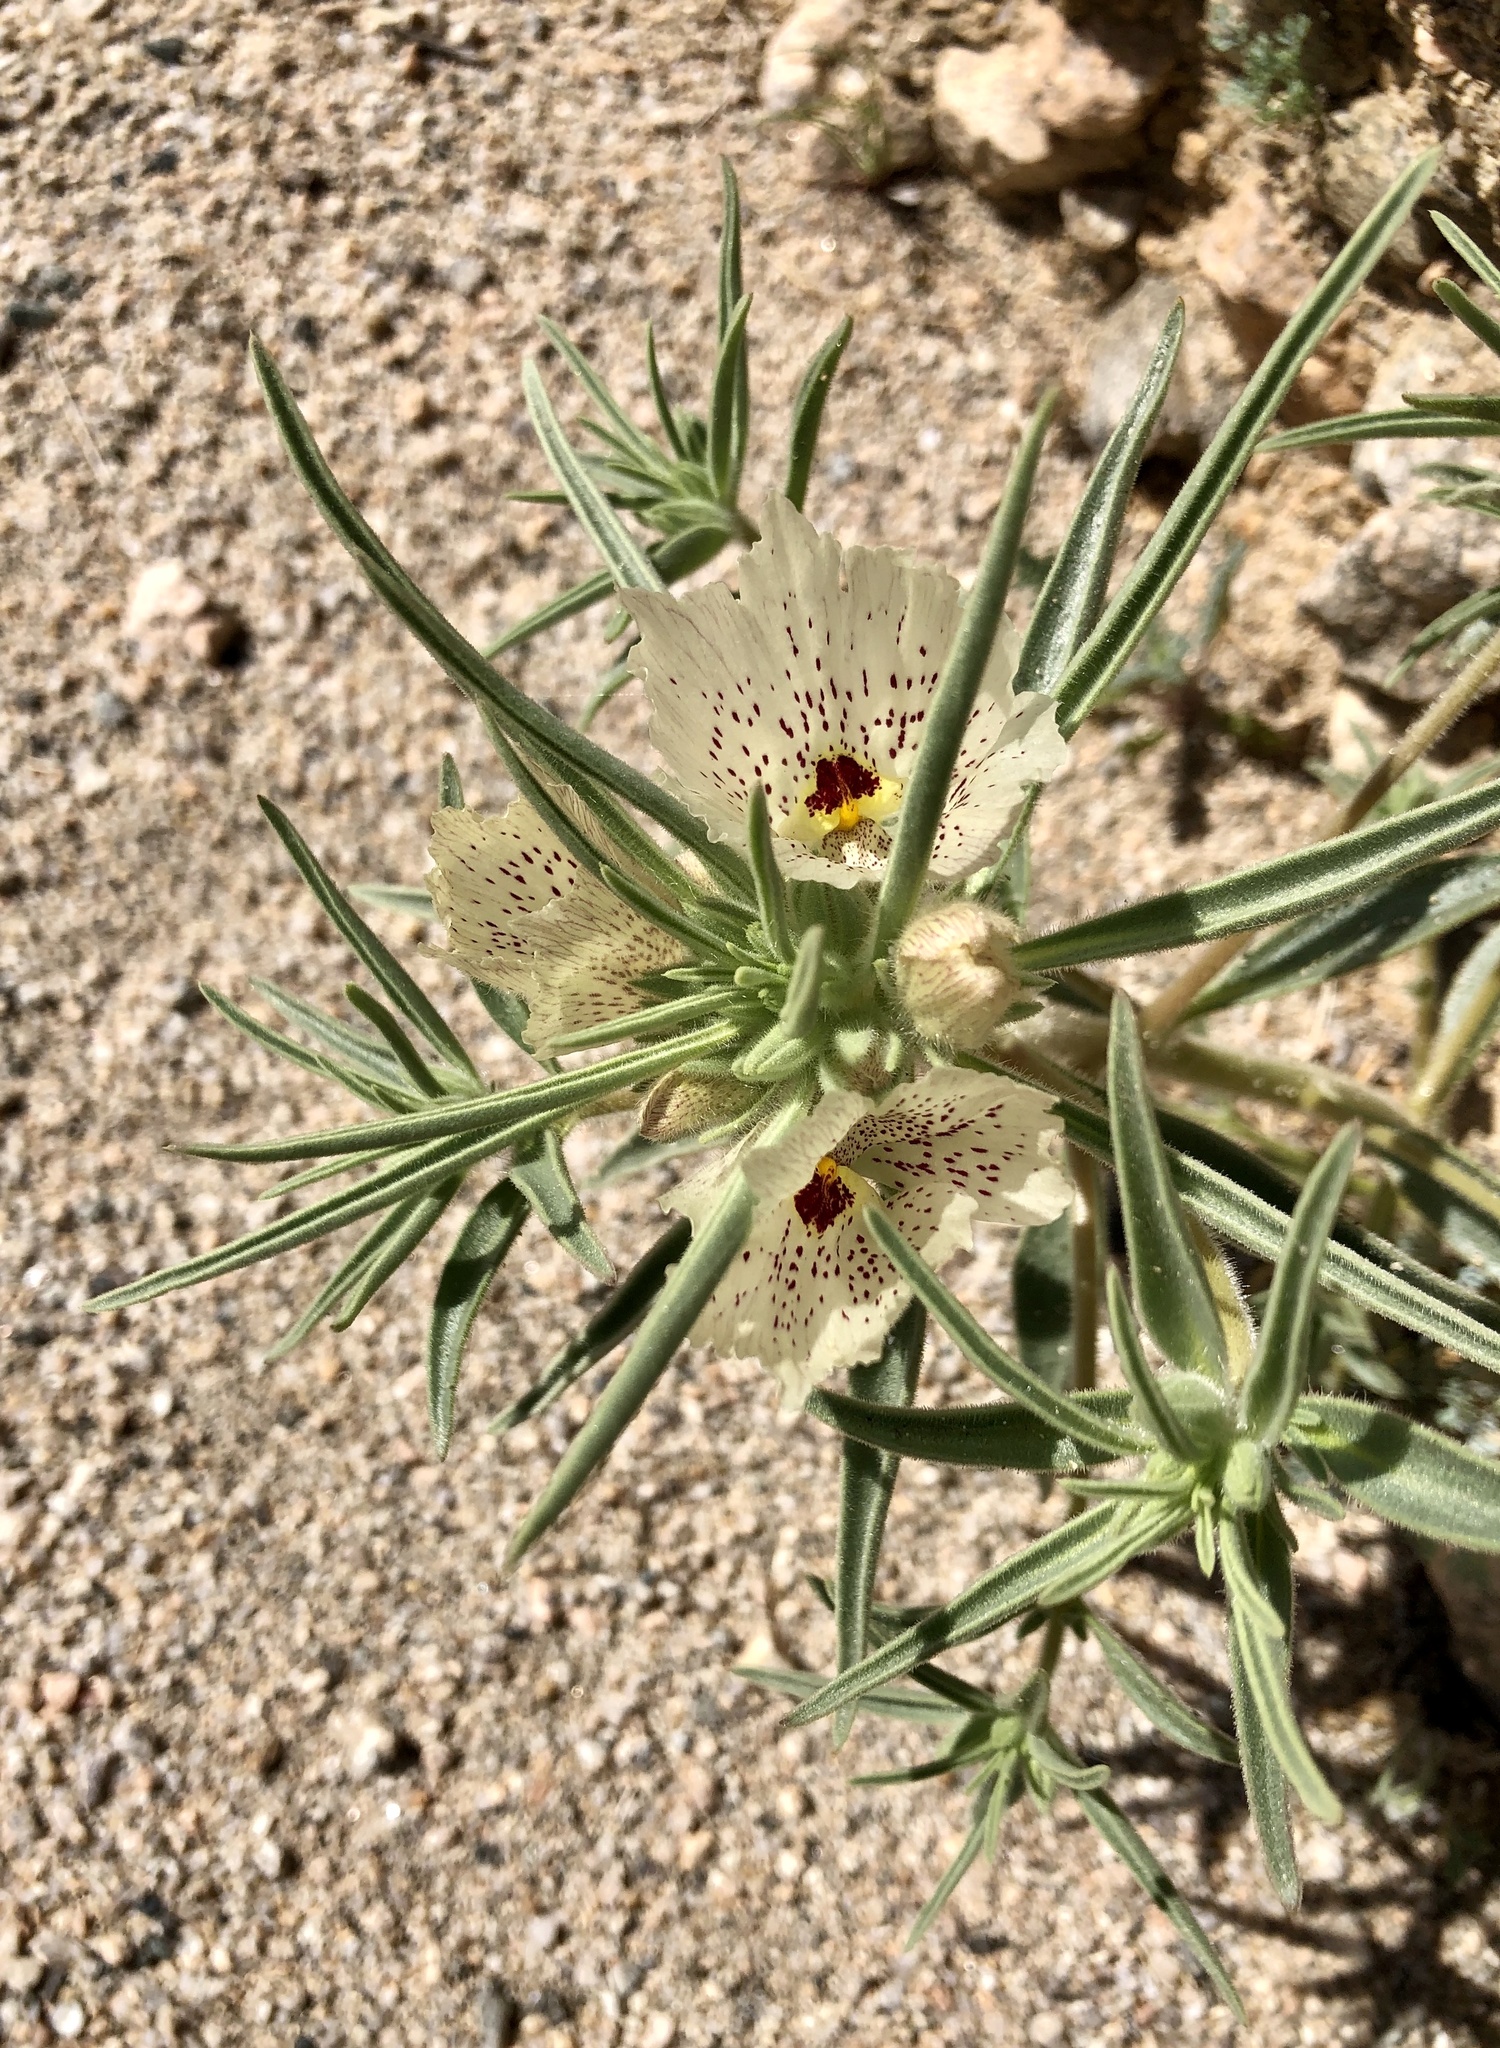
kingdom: Plantae
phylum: Tracheophyta
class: Magnoliopsida
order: Lamiales
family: Plantaginaceae
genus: Mohavea
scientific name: Mohavea confertiflora
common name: Ghost flower
